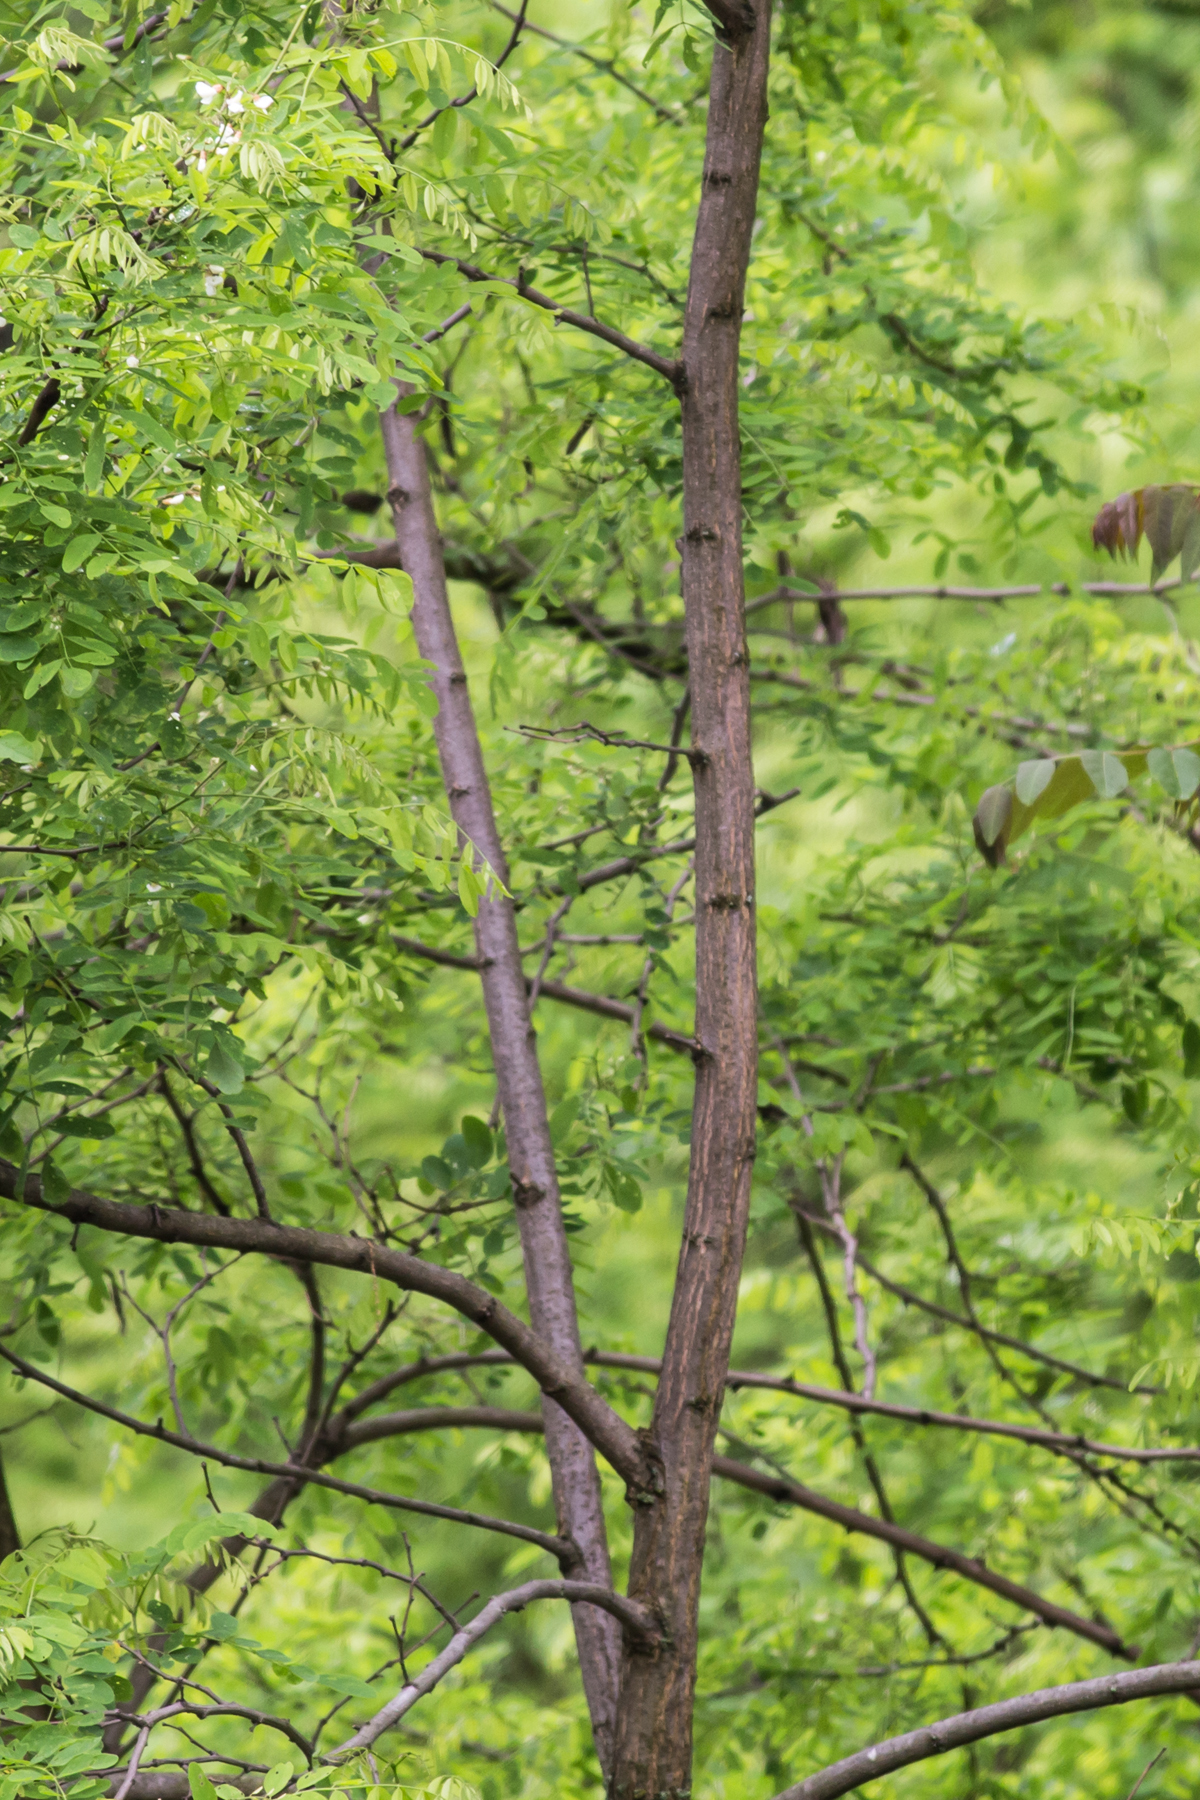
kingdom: Plantae
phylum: Tracheophyta
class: Magnoliopsida
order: Fabales
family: Fabaceae
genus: Robinia
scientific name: Robinia pseudoacacia
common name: Black locust
